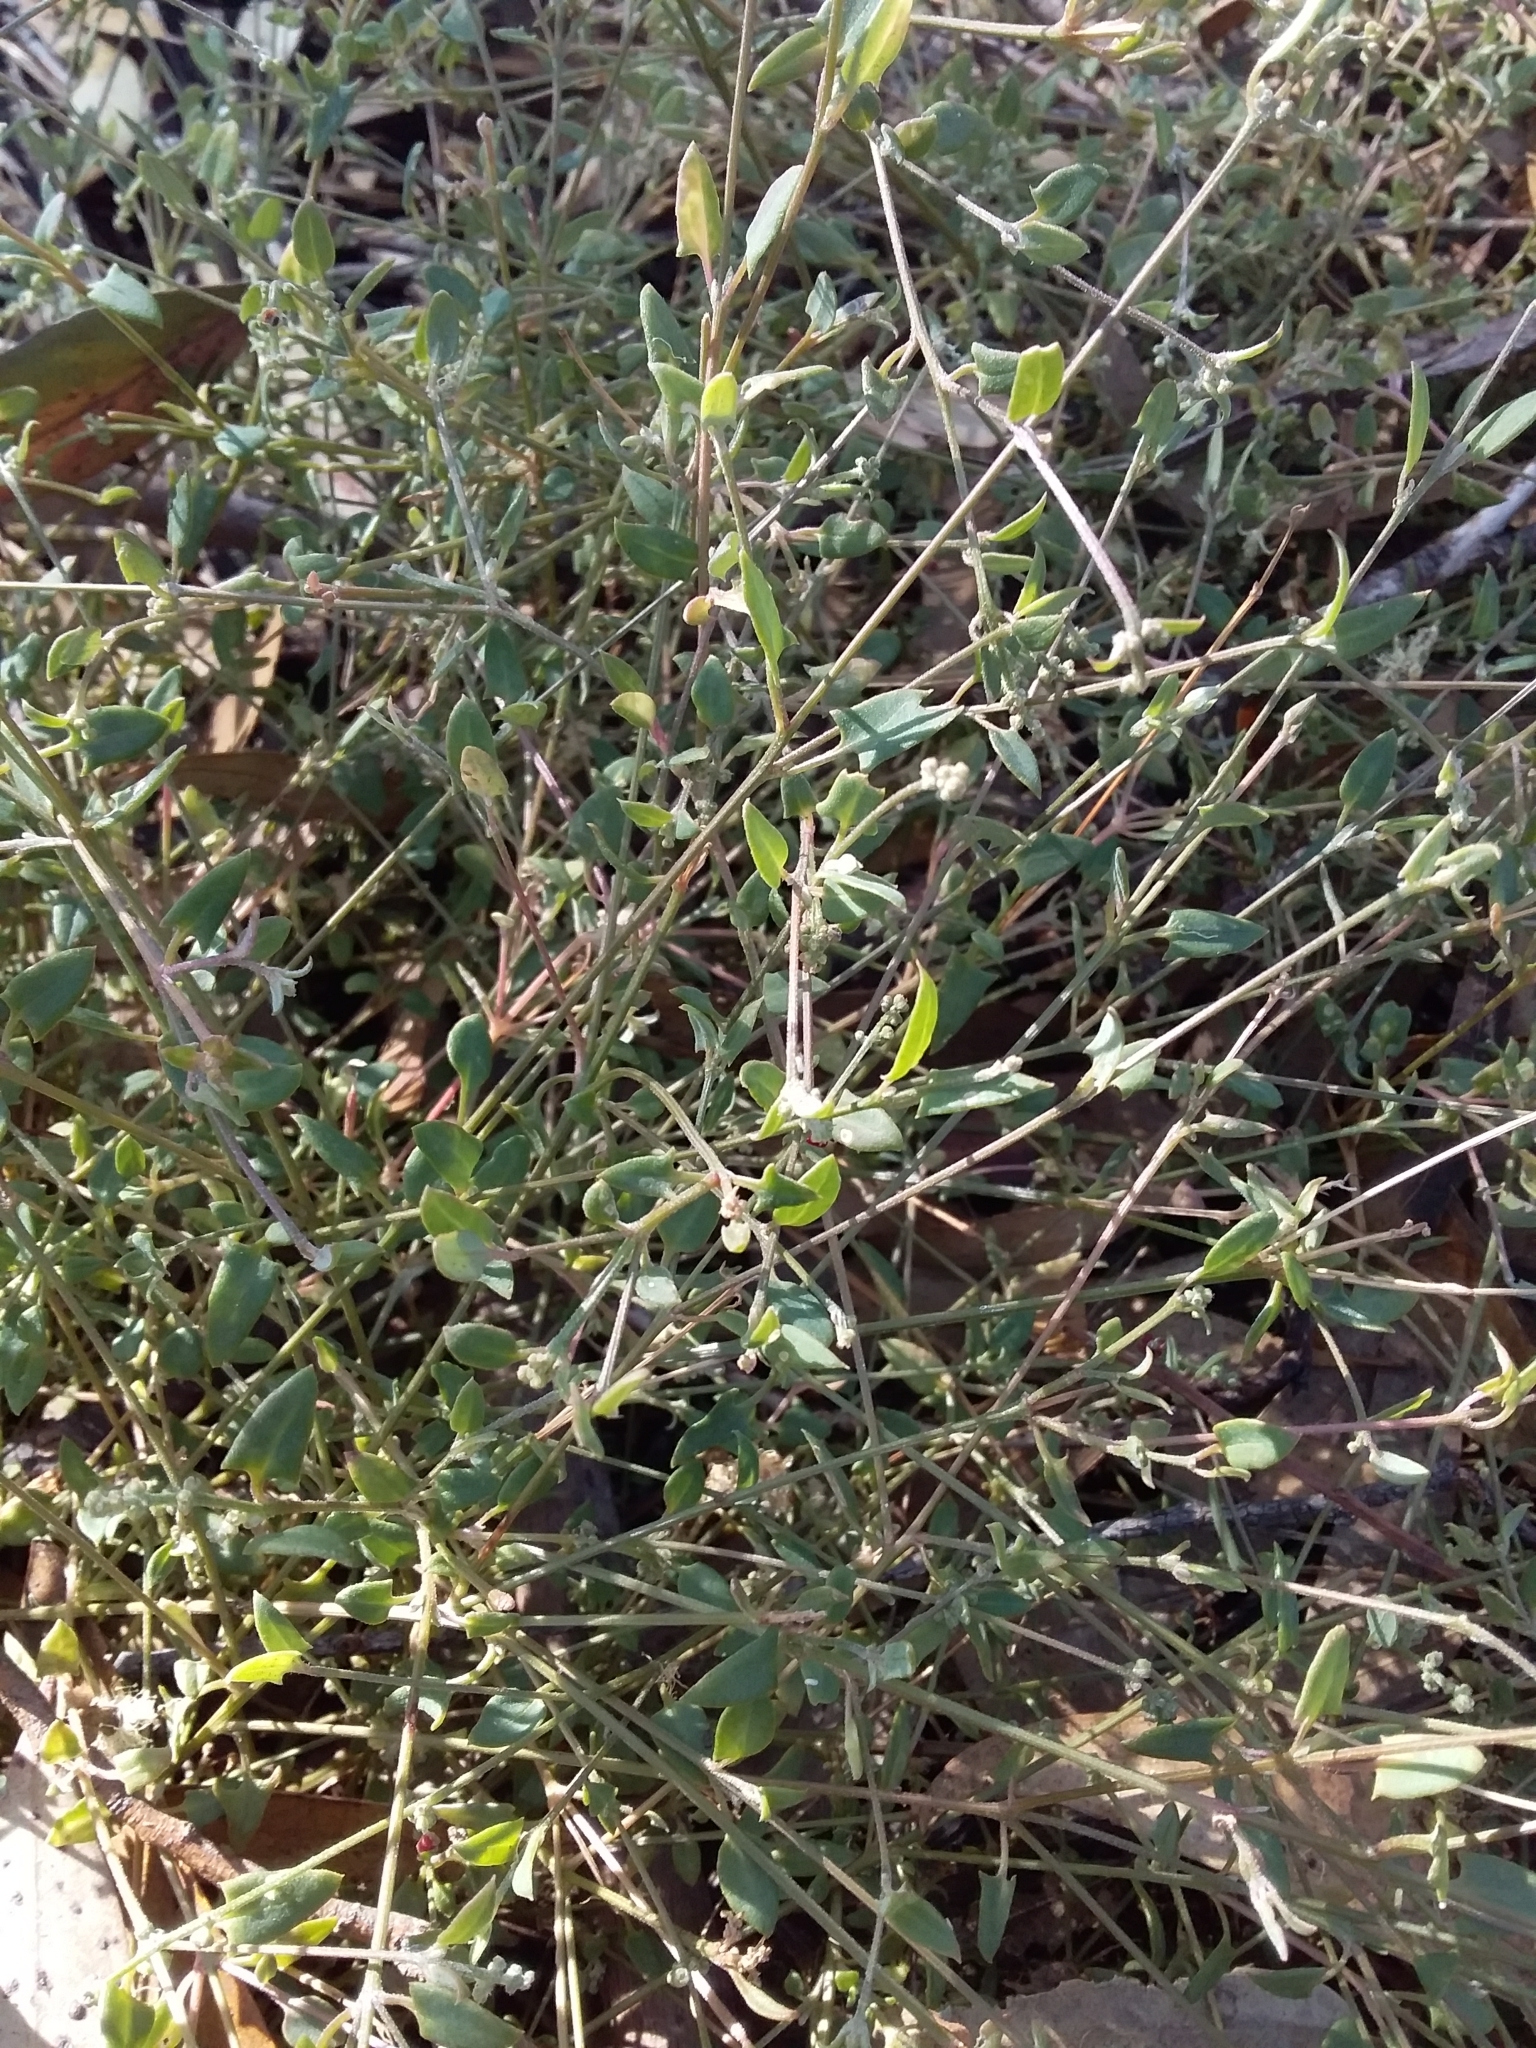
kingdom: Plantae
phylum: Tracheophyta
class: Magnoliopsida
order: Caryophyllales
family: Amaranthaceae
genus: Chenopodium
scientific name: Chenopodium nutans
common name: Climbing-saltbush
